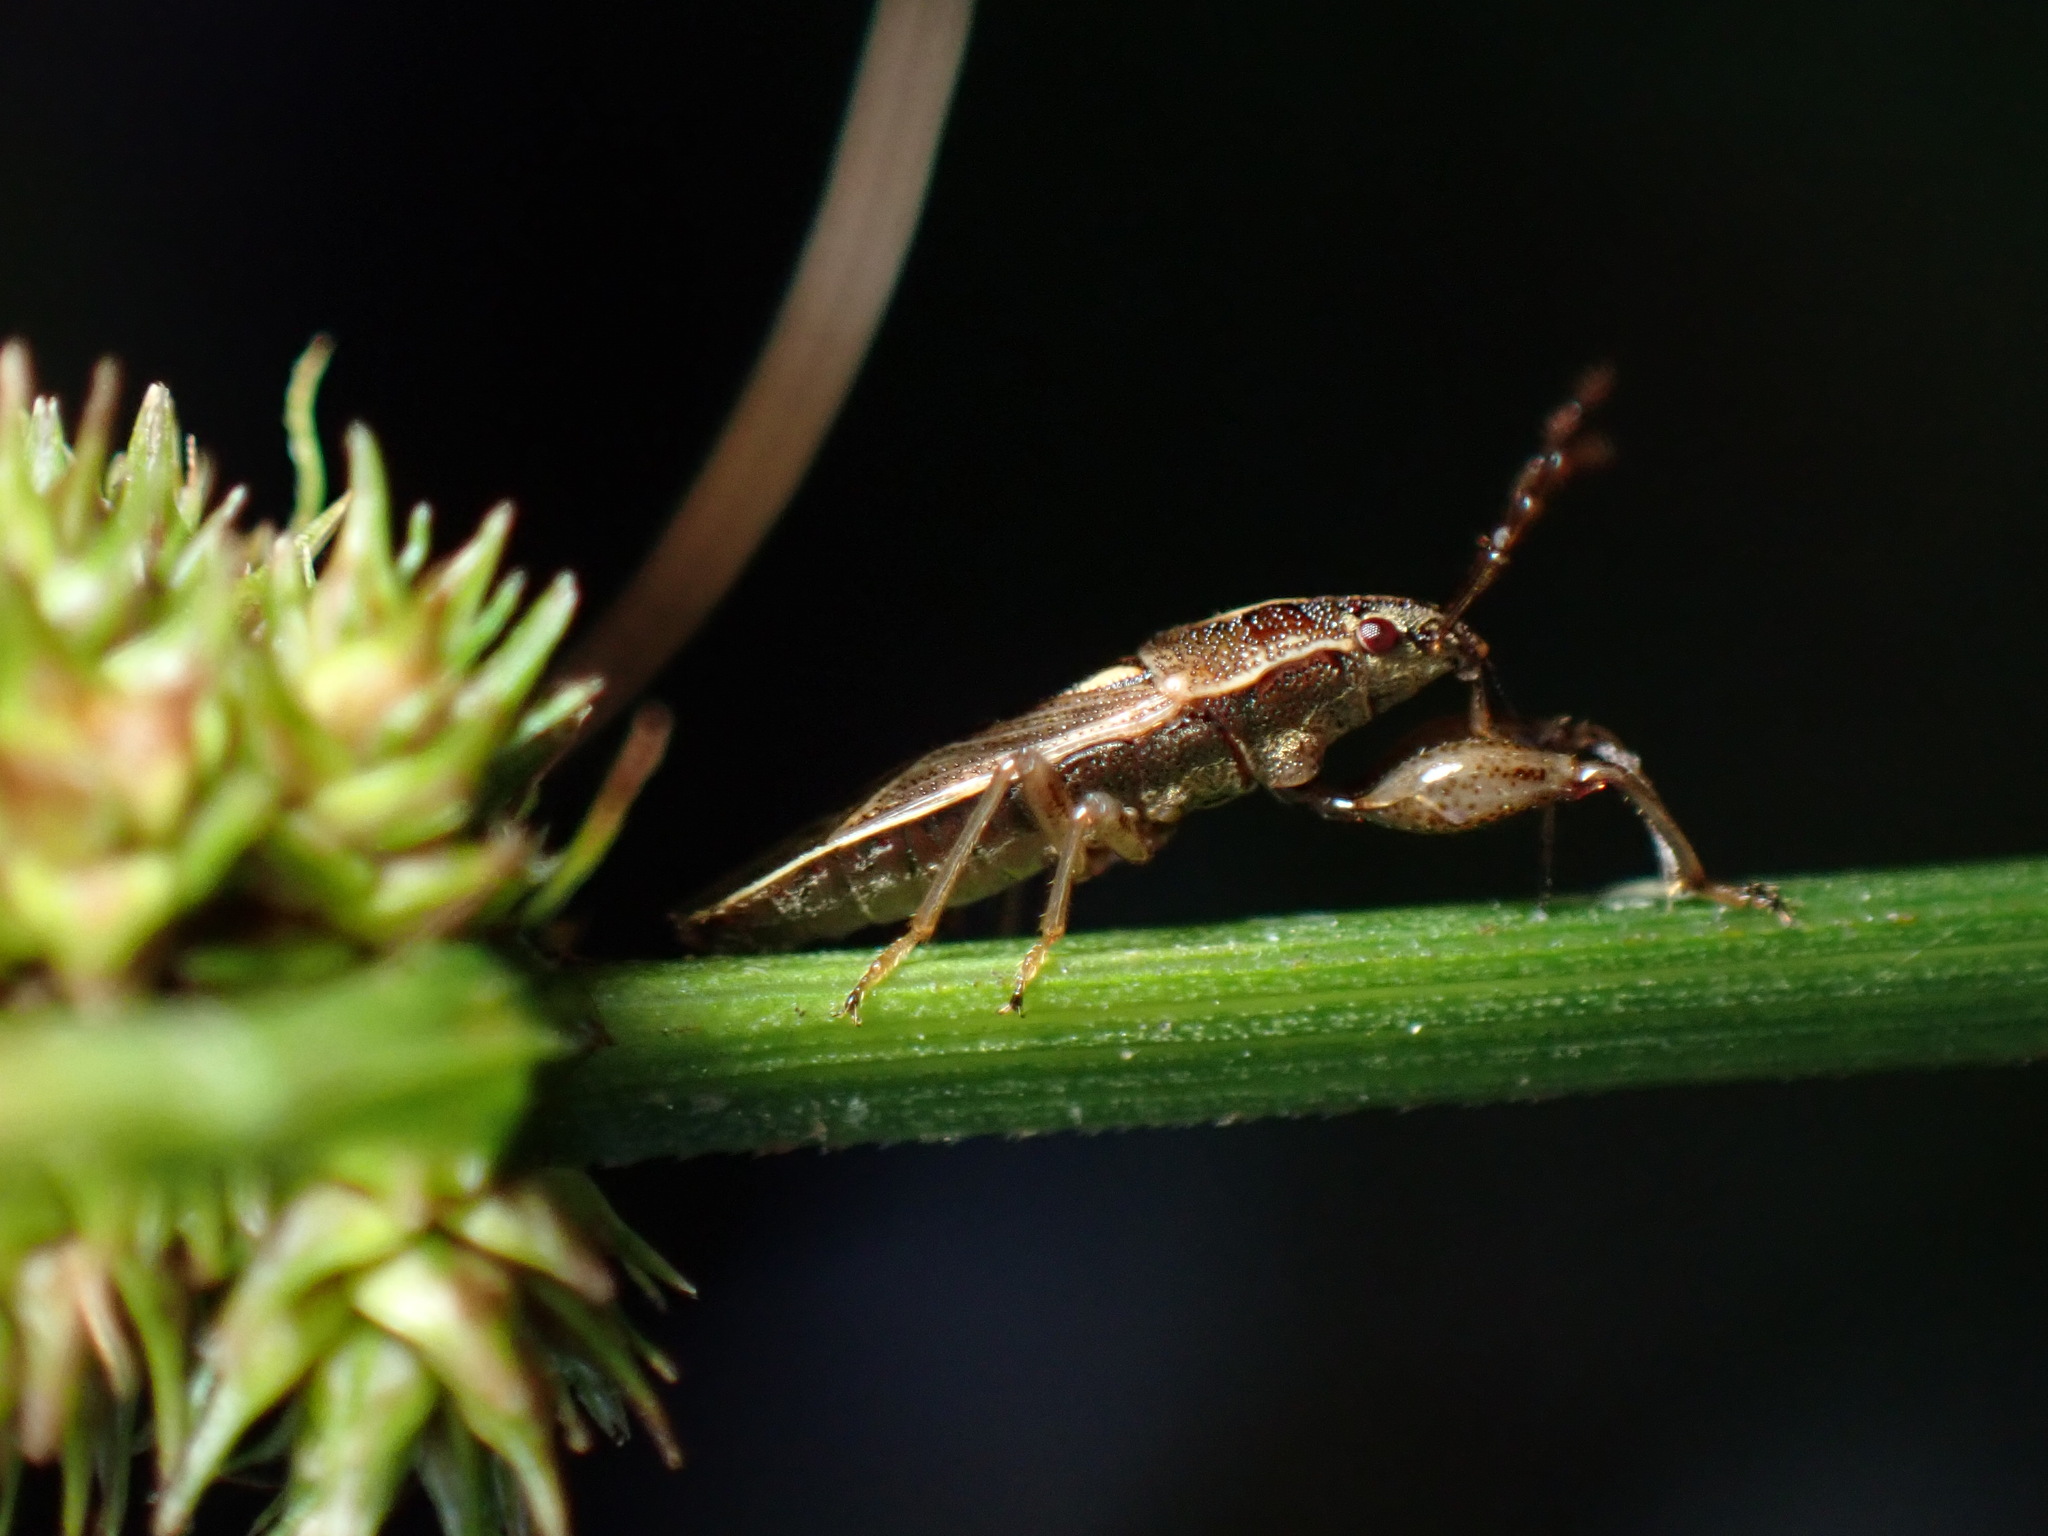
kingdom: Animalia
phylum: Arthropoda
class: Insecta
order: Hemiptera
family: Pachygronthidae
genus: Oedancala
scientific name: Oedancala dorsalis
